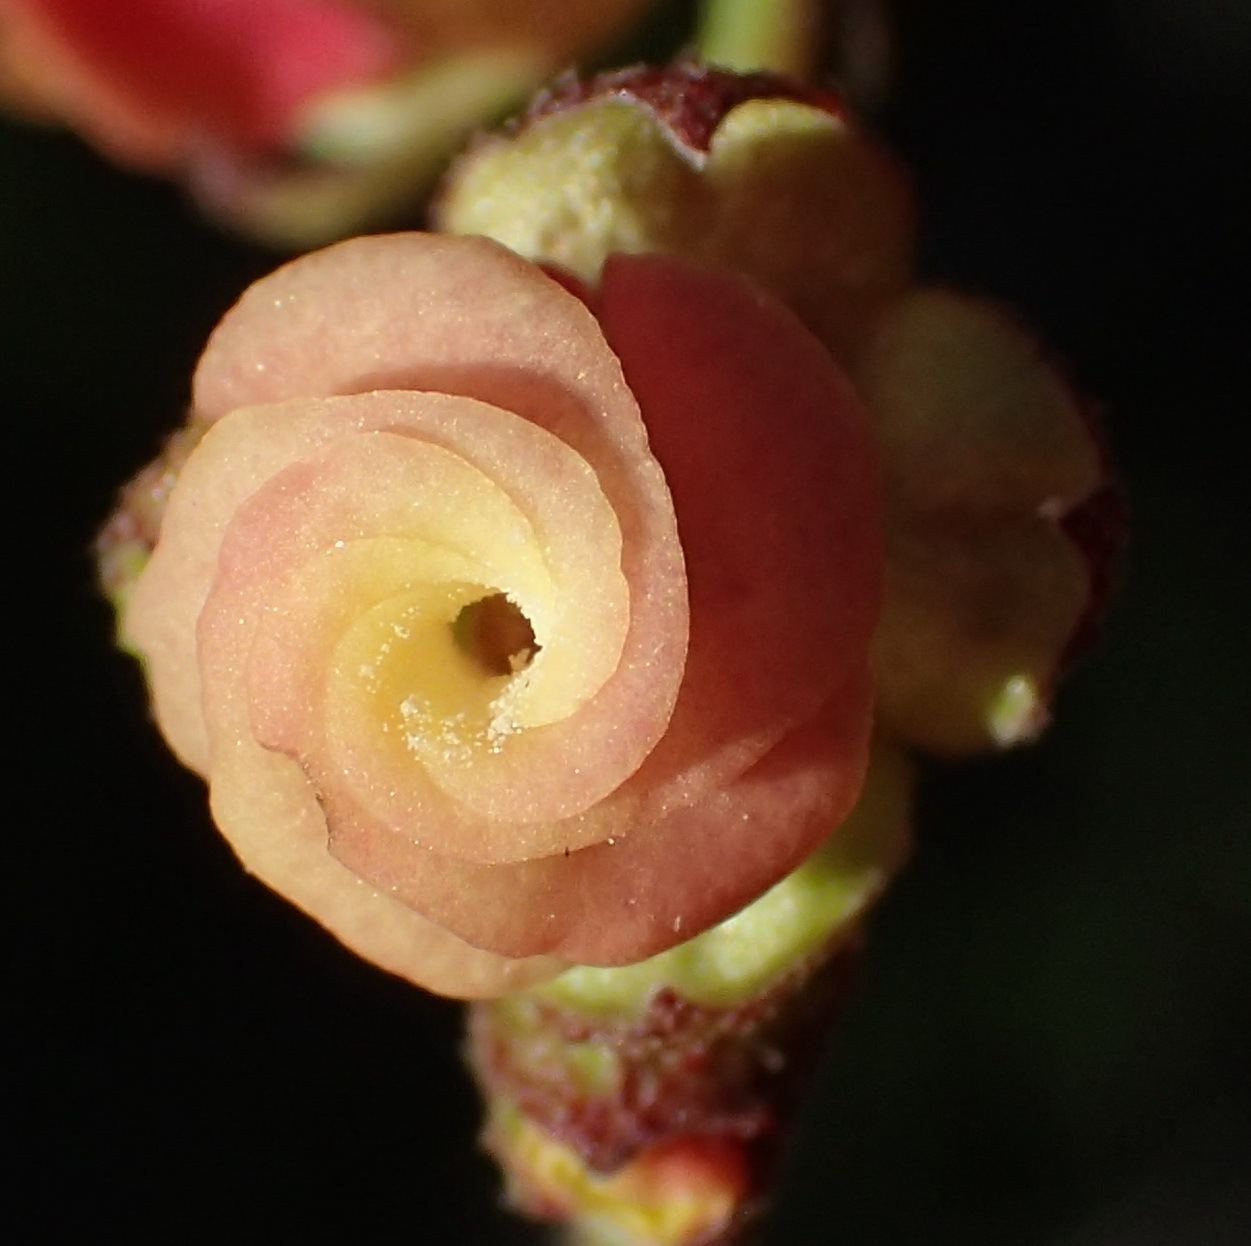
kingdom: Plantae
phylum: Tracheophyta
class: Magnoliopsida
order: Malvales
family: Malvaceae
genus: Hermannia
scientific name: Hermannia flammea
